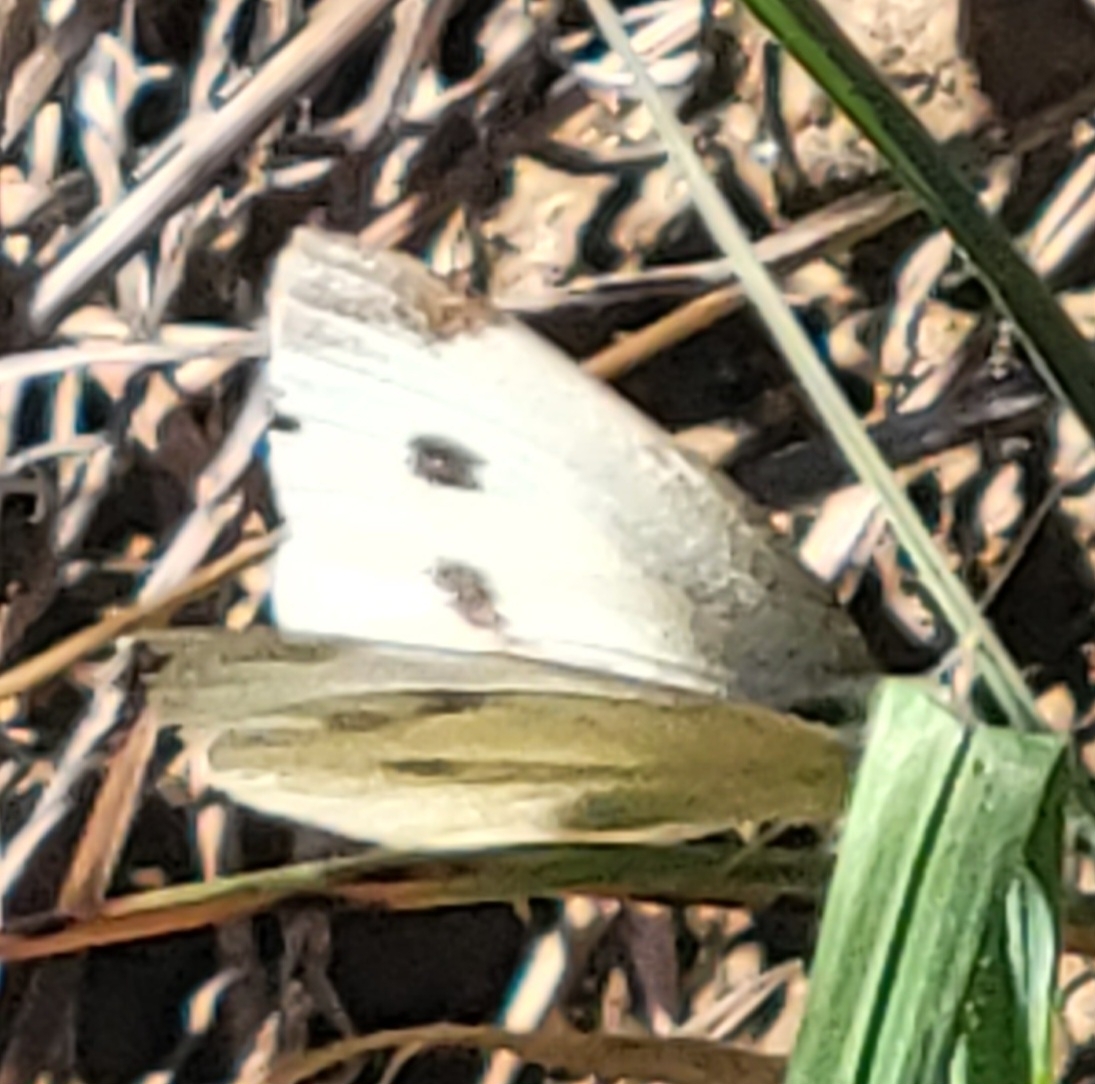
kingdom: Animalia
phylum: Arthropoda
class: Insecta
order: Lepidoptera
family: Pieridae
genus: Pieris
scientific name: Pieris rapae
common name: Small white
